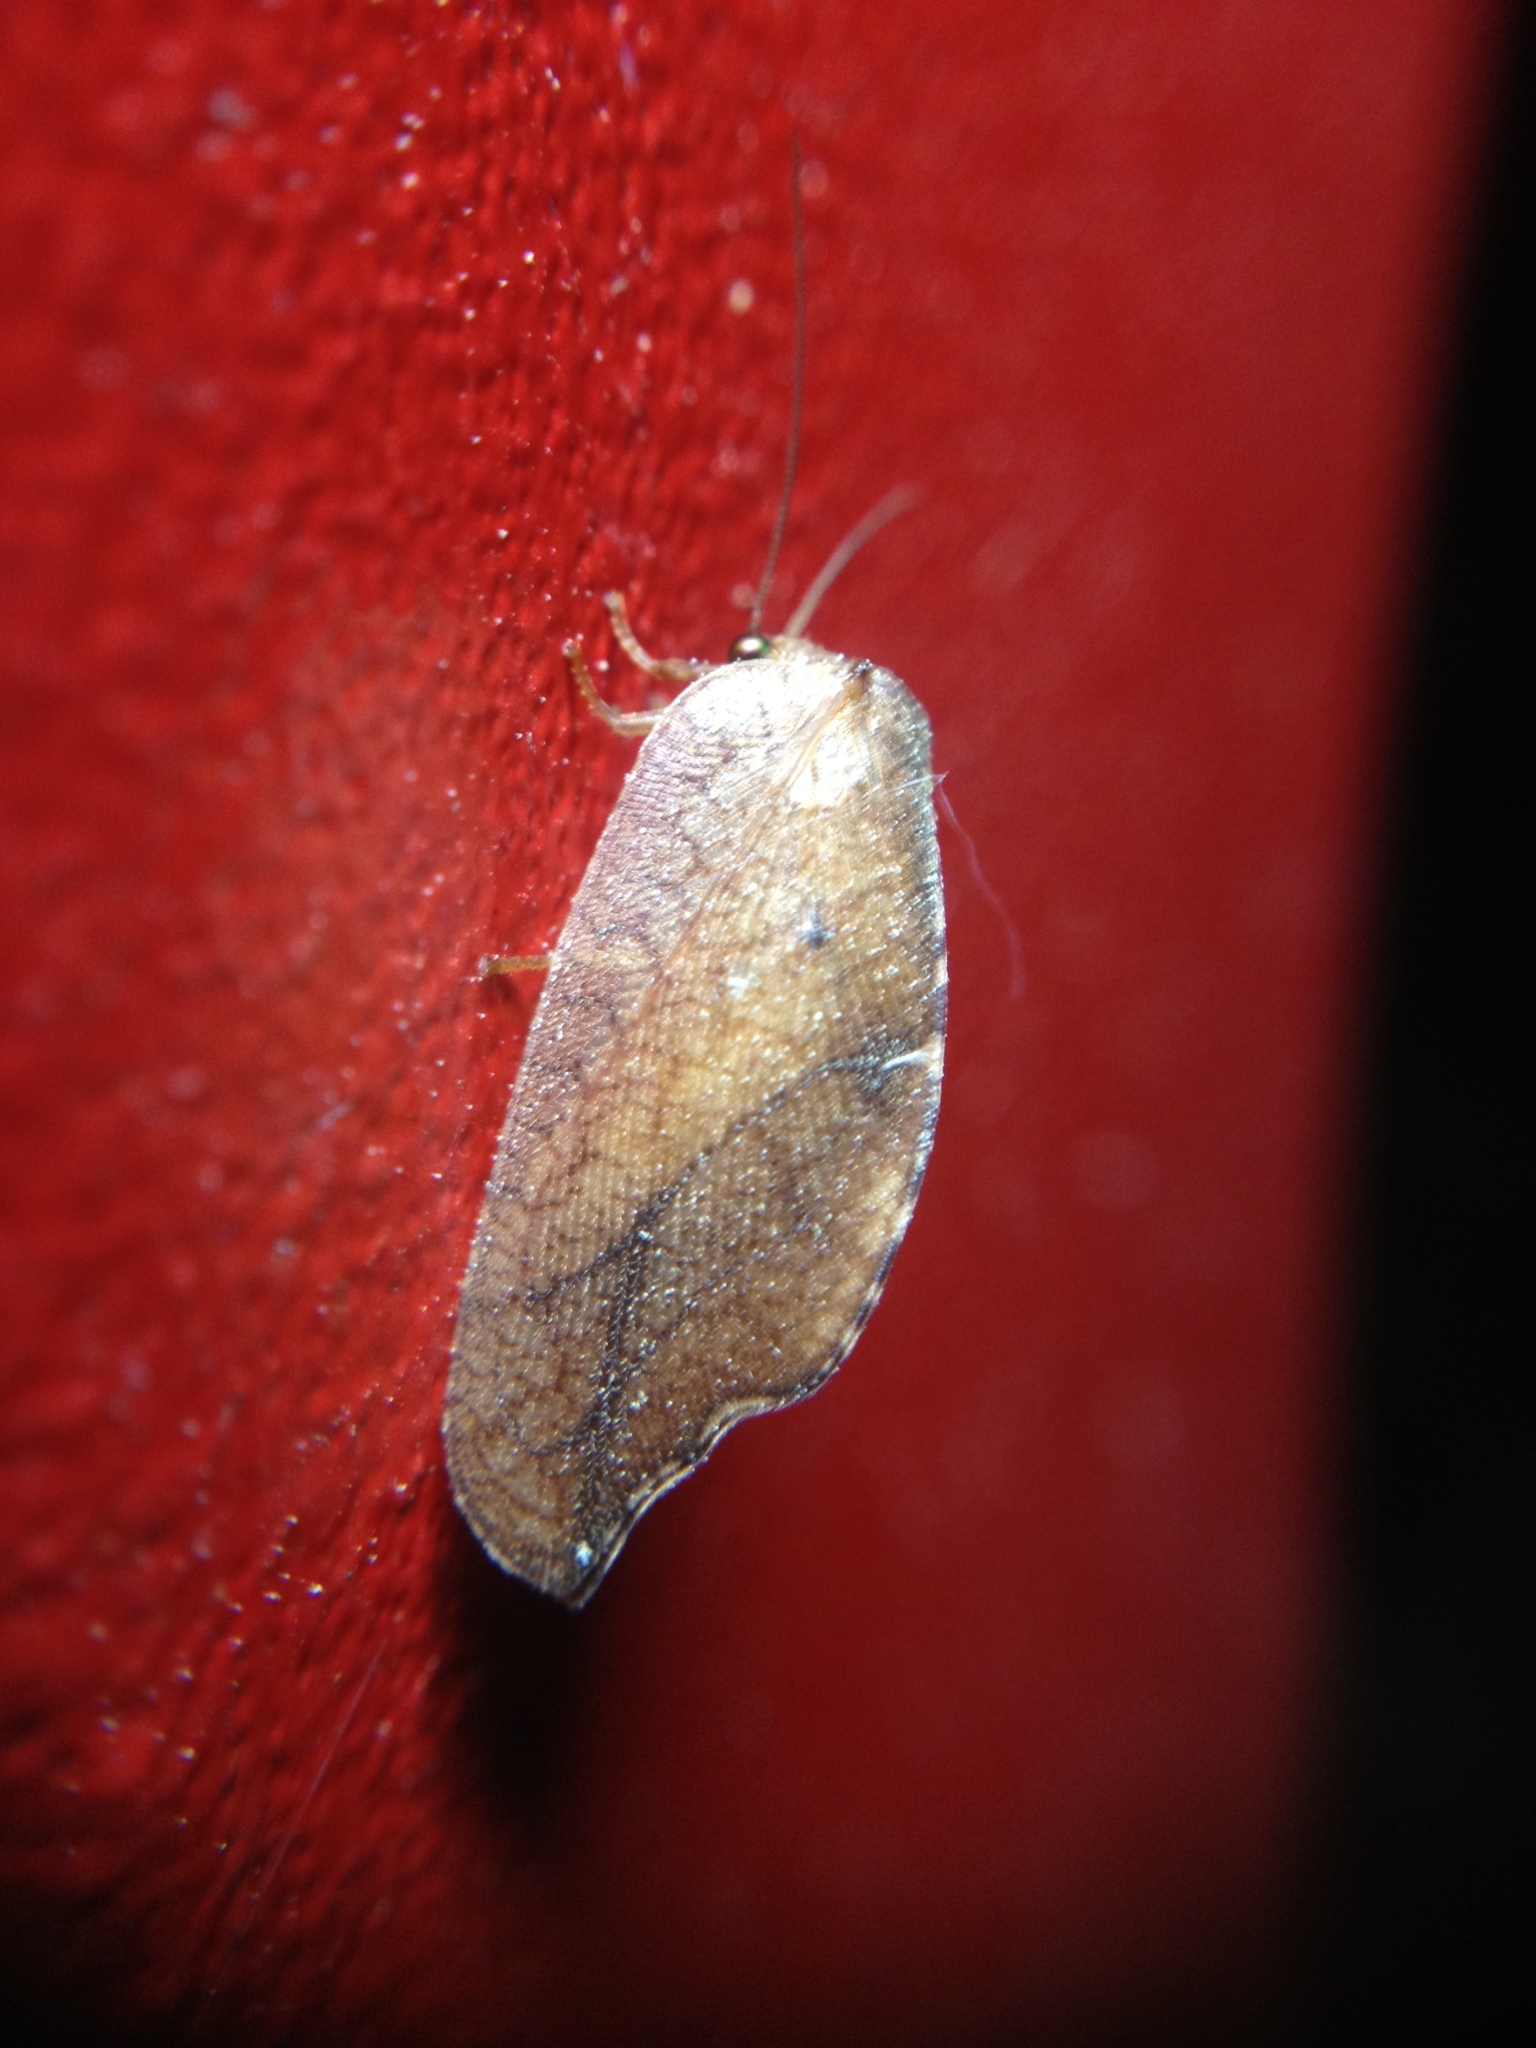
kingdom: Animalia
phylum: Arthropoda
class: Insecta
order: Neuroptera
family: Hemerobiidae
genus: Drepanepteryx
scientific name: Drepanepteryx phalaenoides
